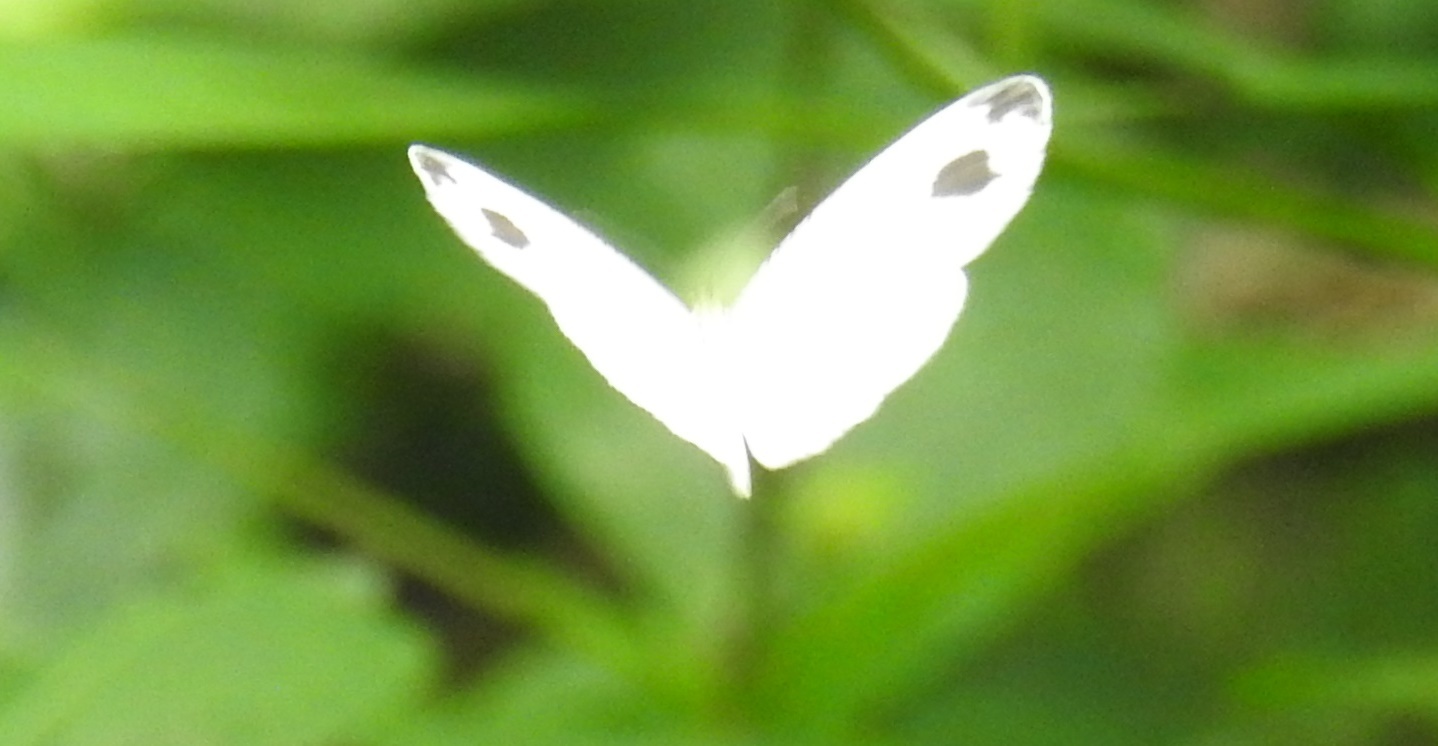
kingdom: Animalia
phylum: Arthropoda
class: Insecta
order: Lepidoptera
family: Pieridae
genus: Leptosia
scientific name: Leptosia nina
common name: Psyche
